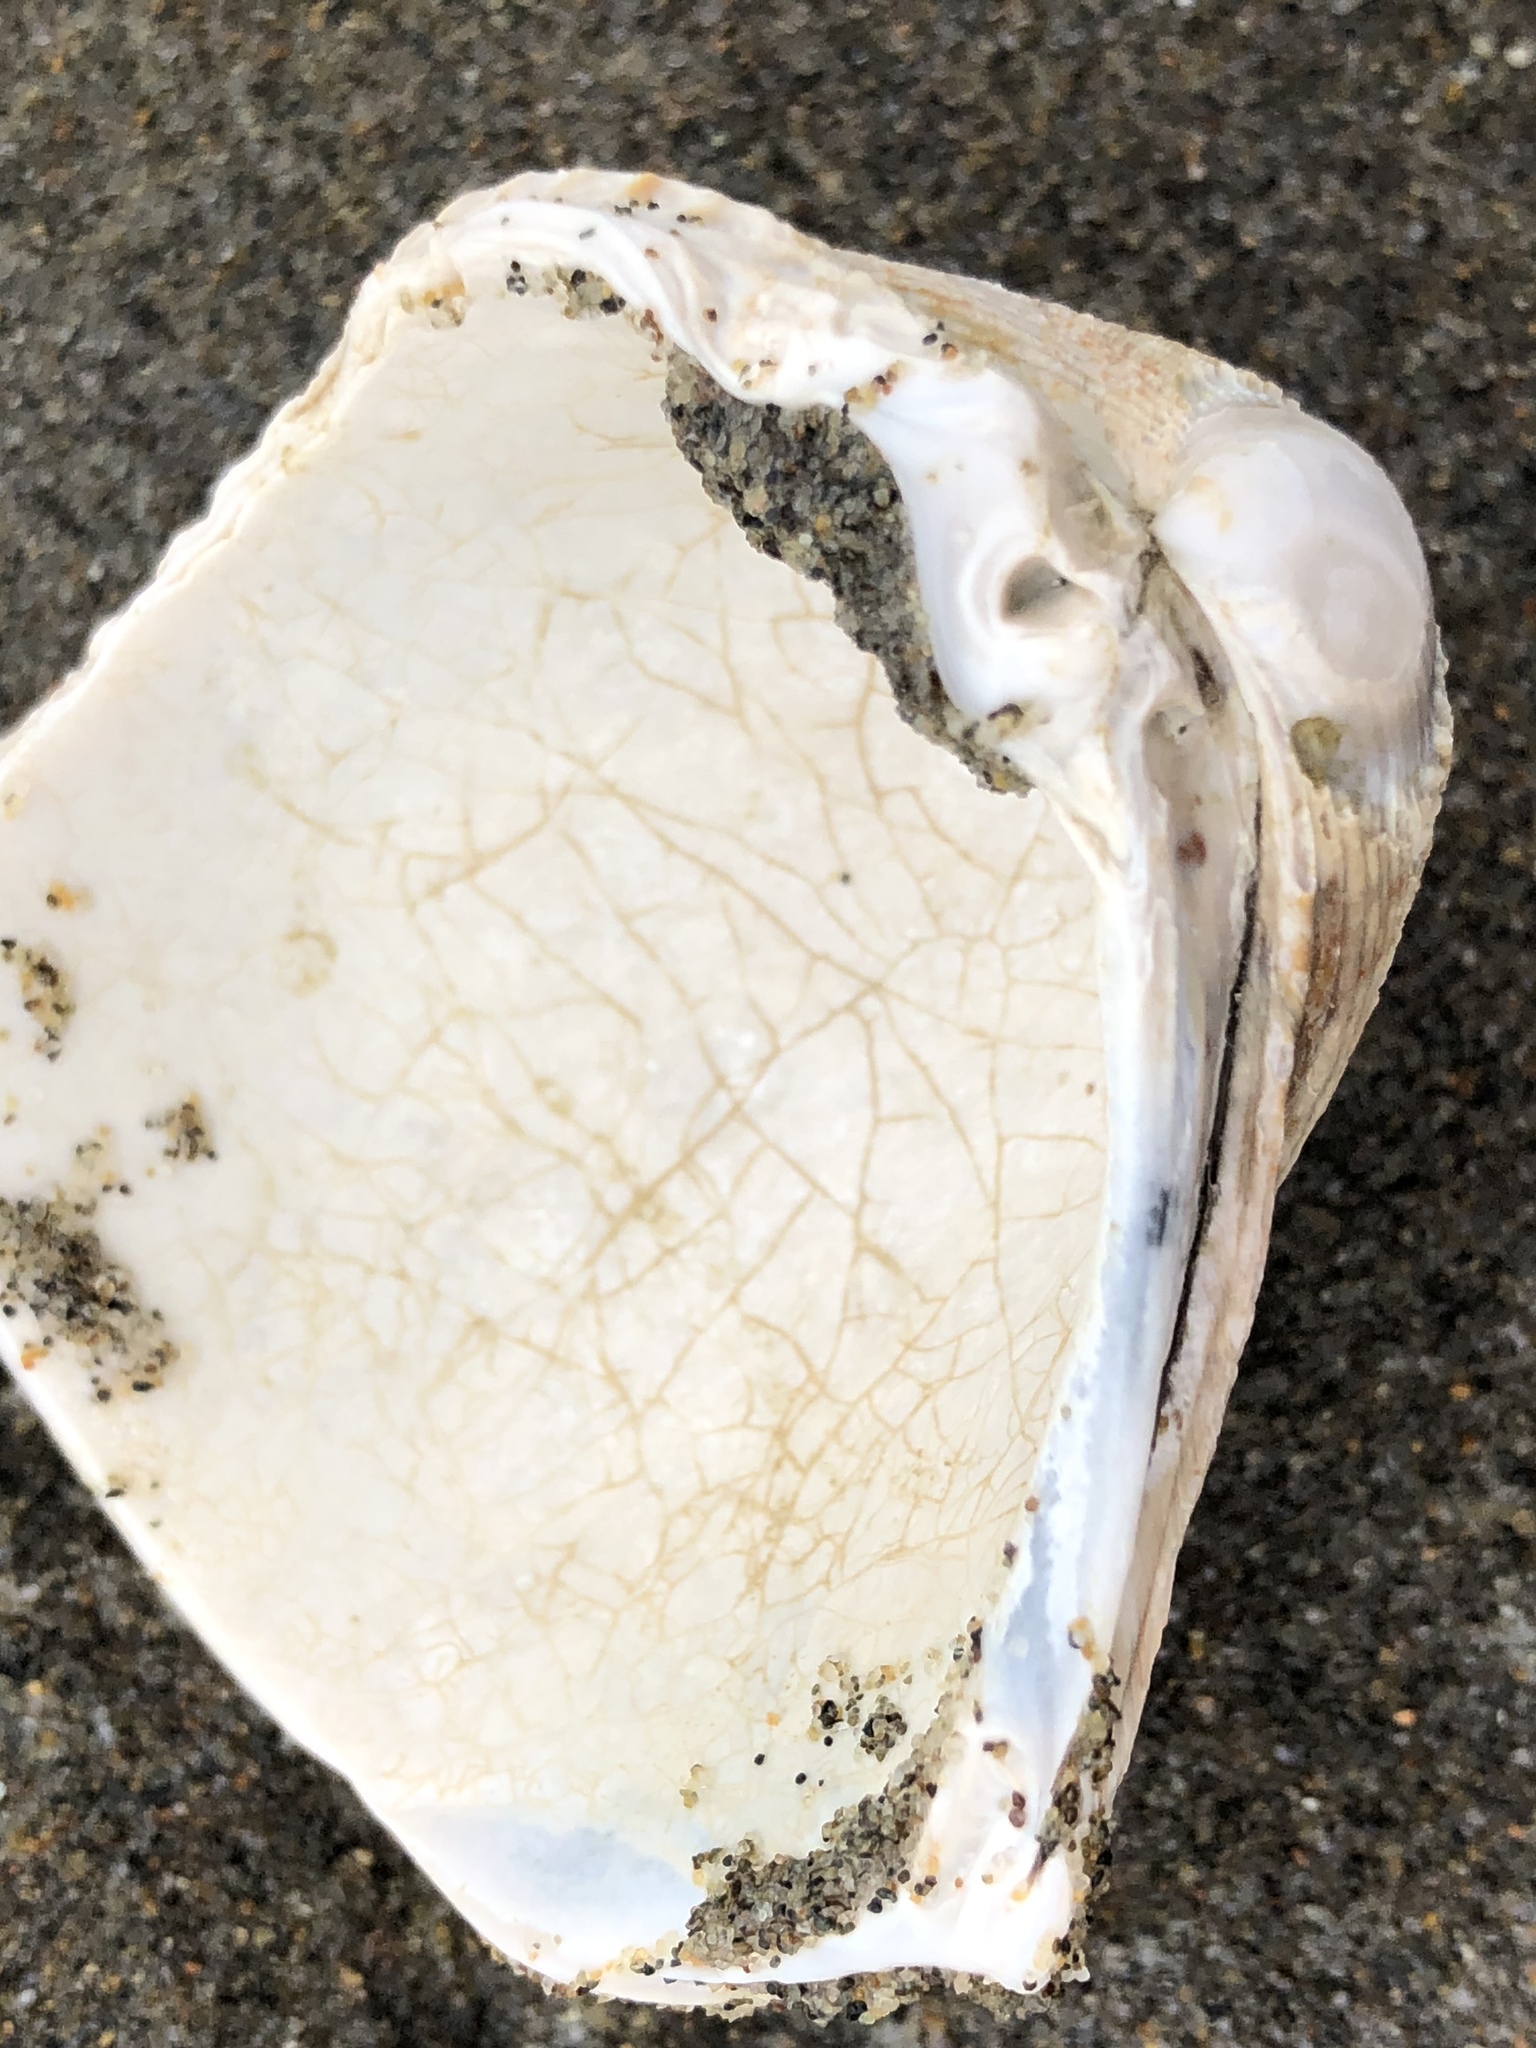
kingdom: Animalia
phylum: Mollusca
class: Bivalvia
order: Cardiida
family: Cardiidae
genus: Clinocardium
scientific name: Clinocardium nuttallii
